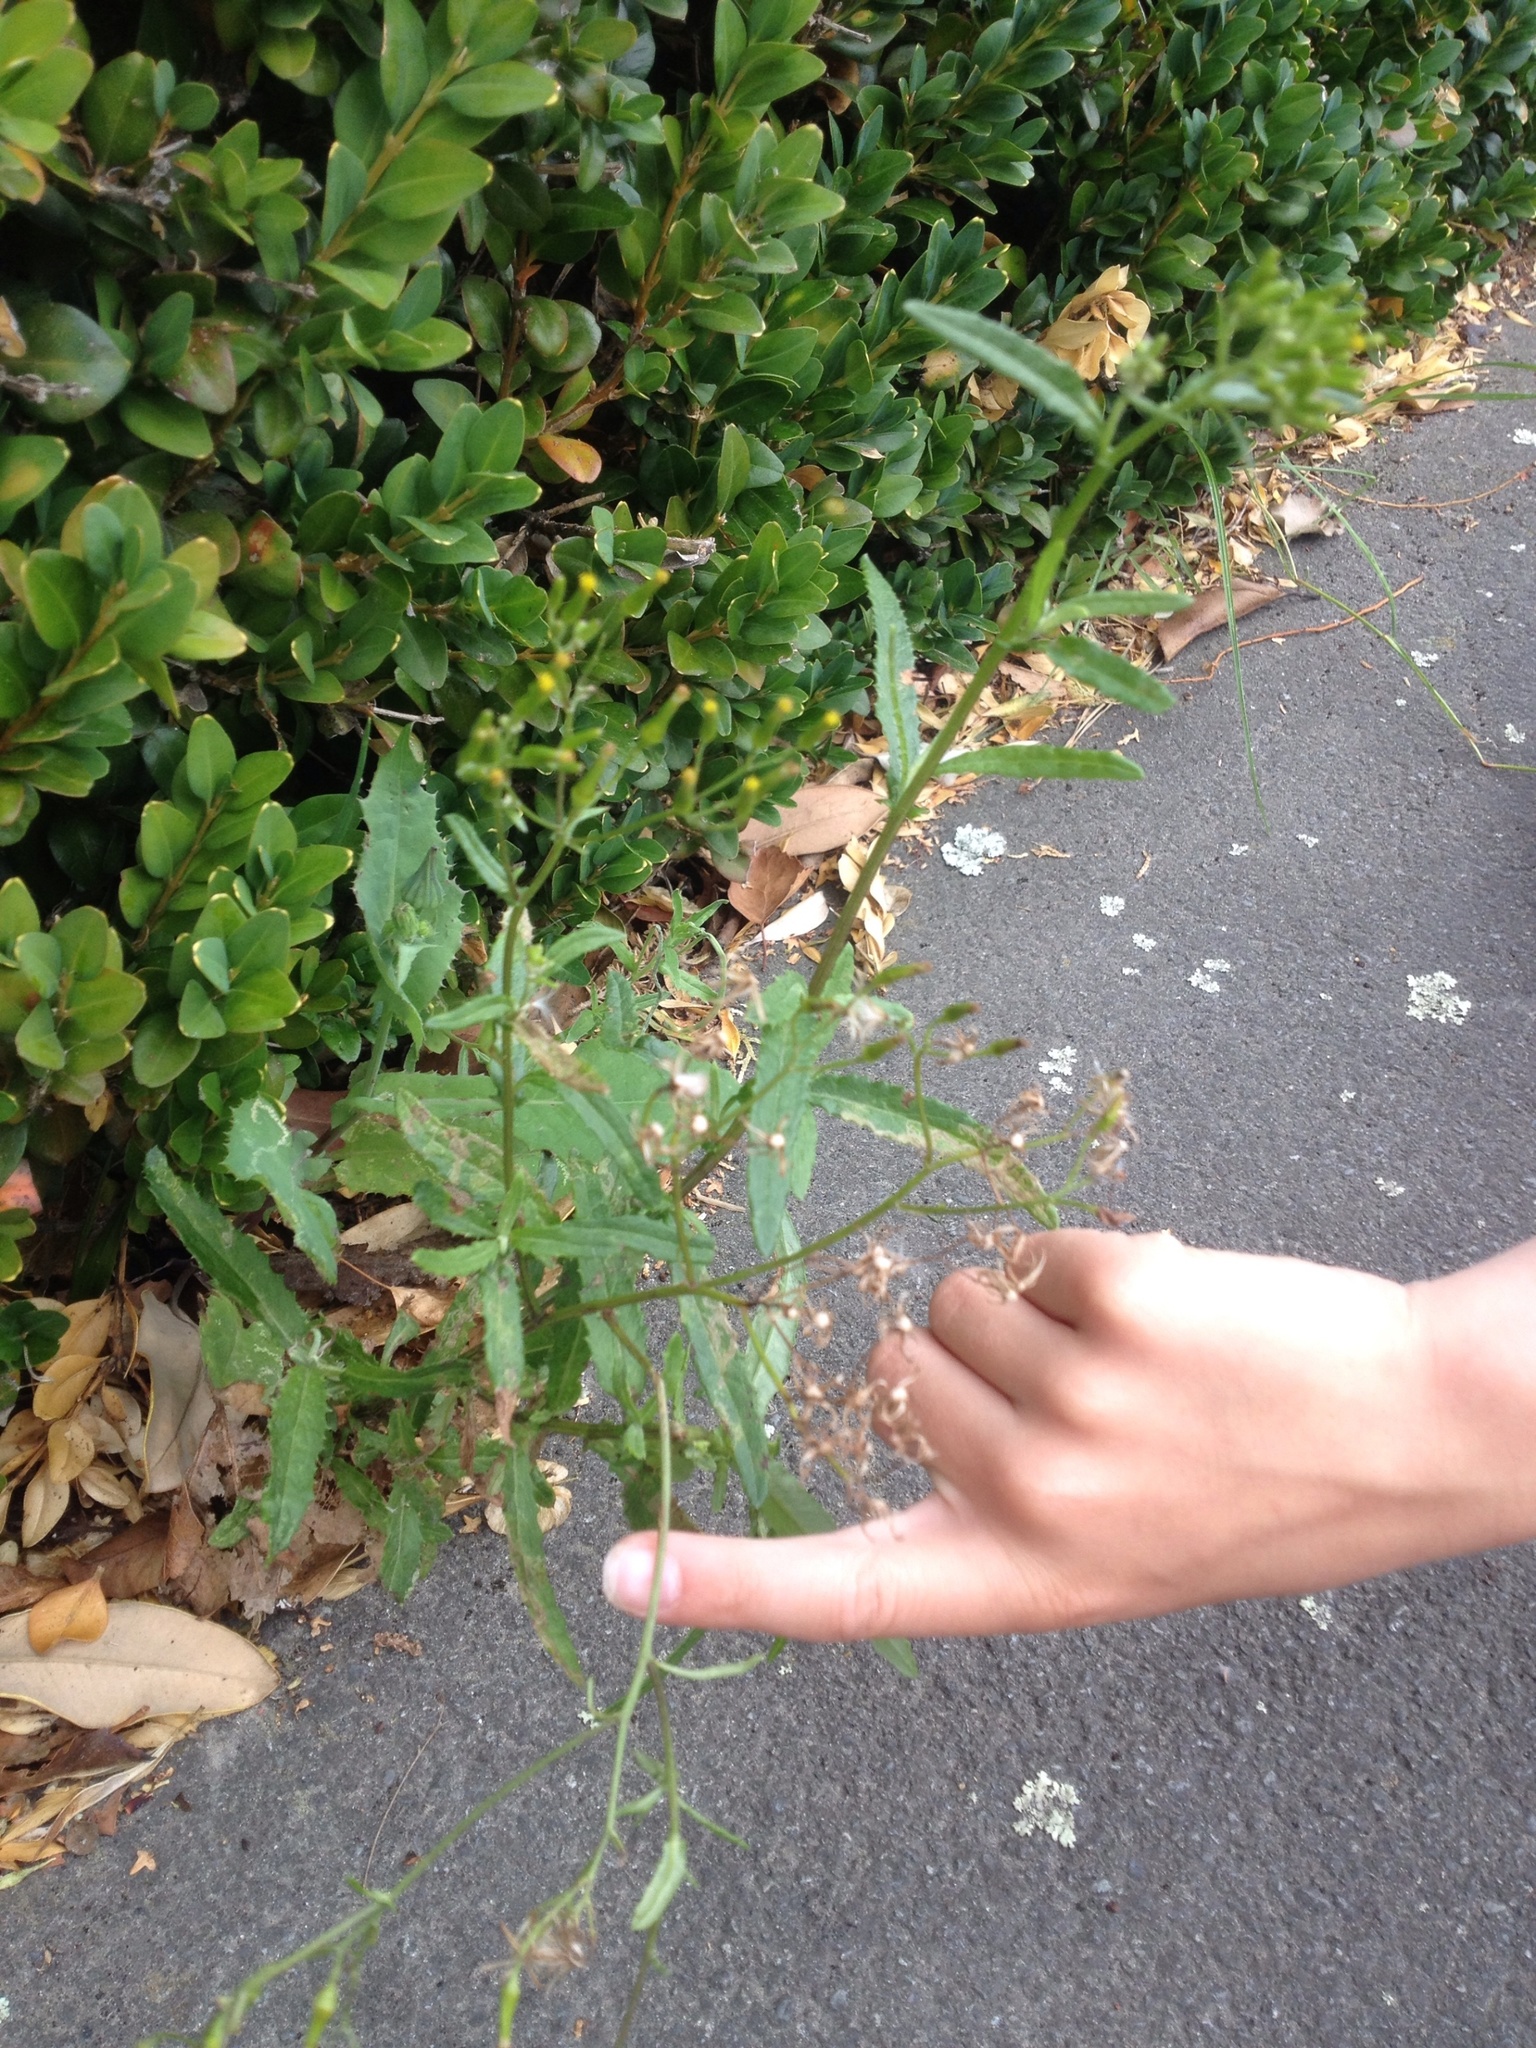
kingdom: Plantae
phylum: Tracheophyta
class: Magnoliopsida
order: Asterales
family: Asteraceae
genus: Senecio
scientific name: Senecio minimus
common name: Toothed fireweed
